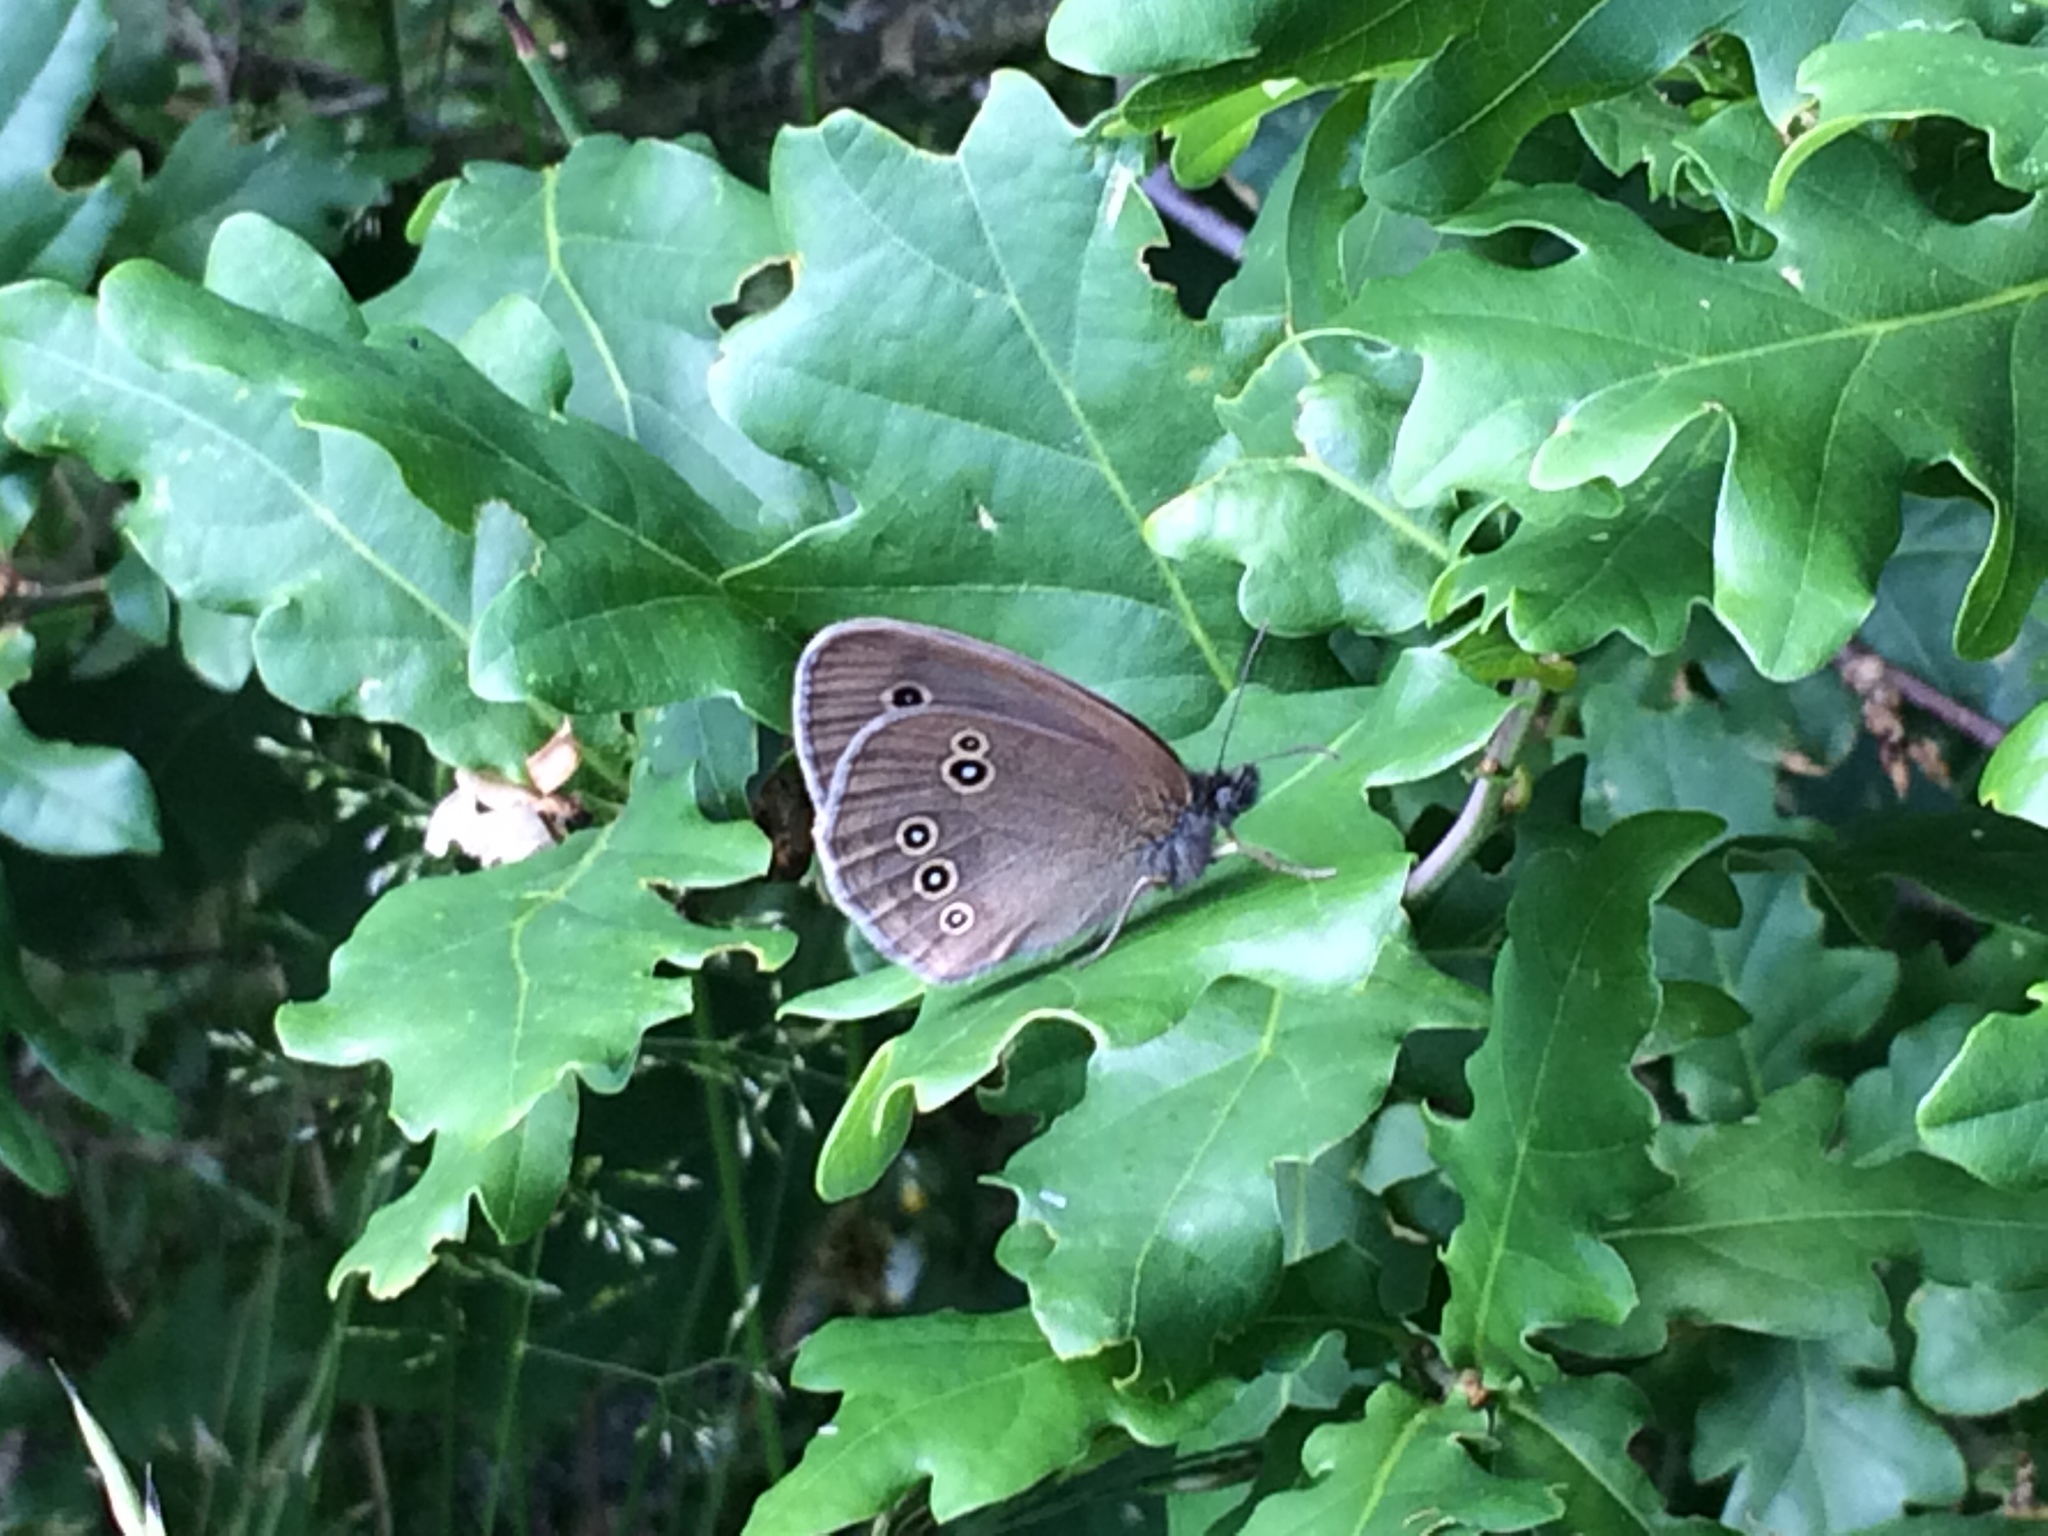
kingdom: Animalia
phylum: Arthropoda
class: Insecta
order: Lepidoptera
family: Nymphalidae
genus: Aphantopus
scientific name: Aphantopus hyperantus
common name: Ringlet
